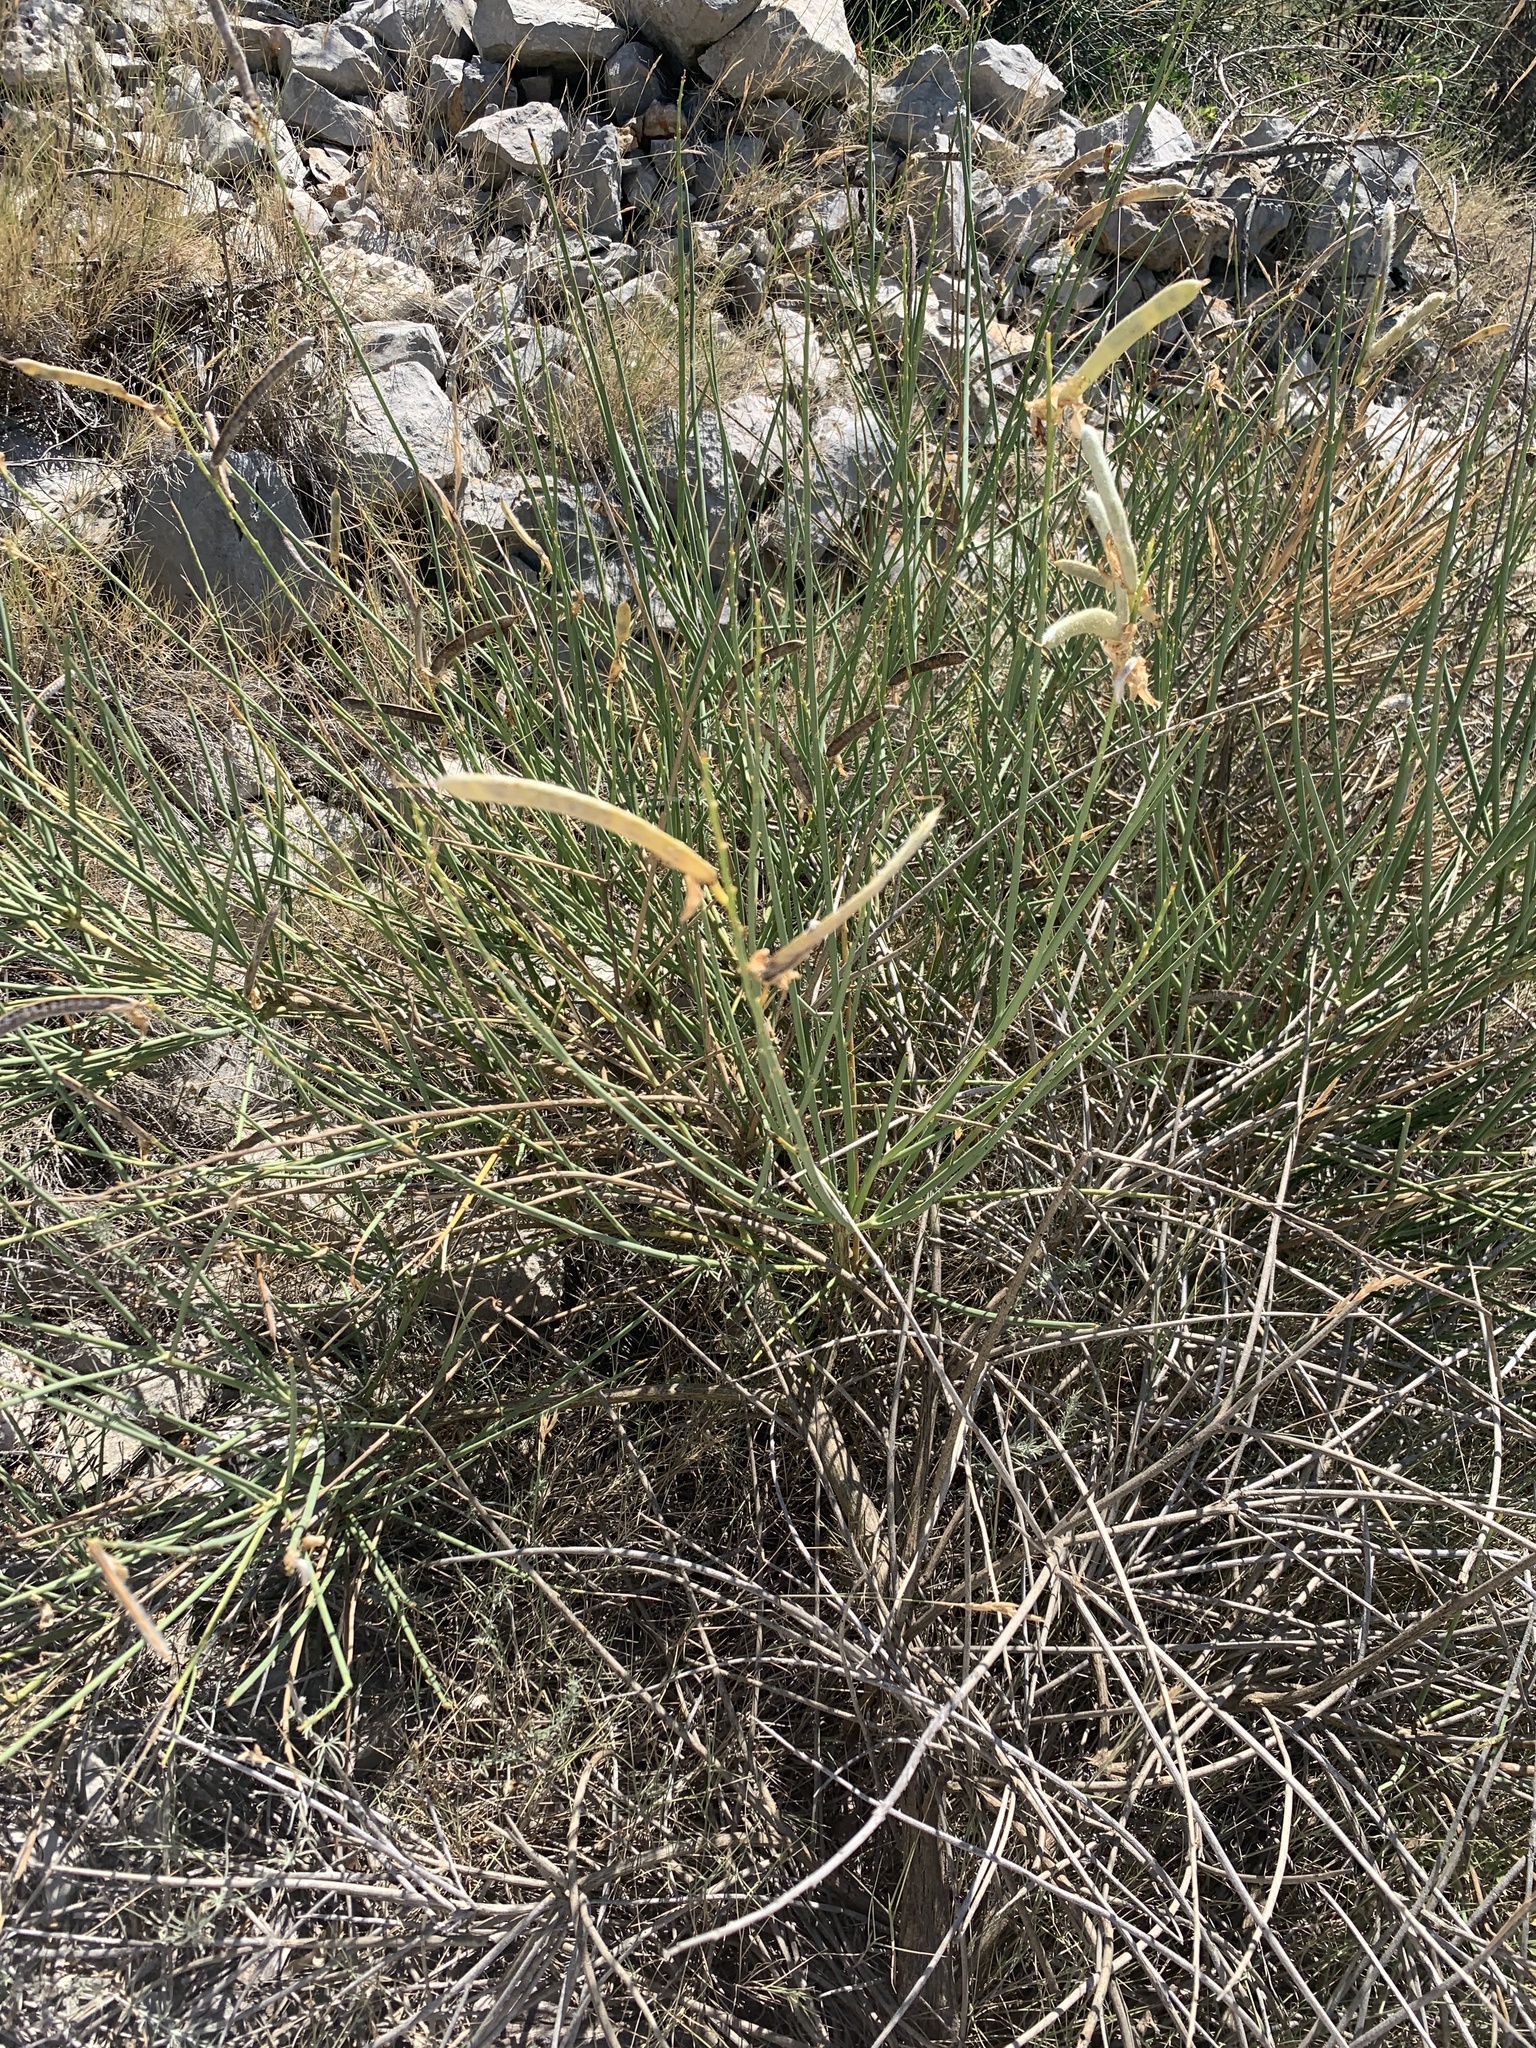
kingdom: Plantae
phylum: Tracheophyta
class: Magnoliopsida
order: Fabales
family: Fabaceae
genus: Spartium
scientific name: Spartium junceum
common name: Spanish broom
